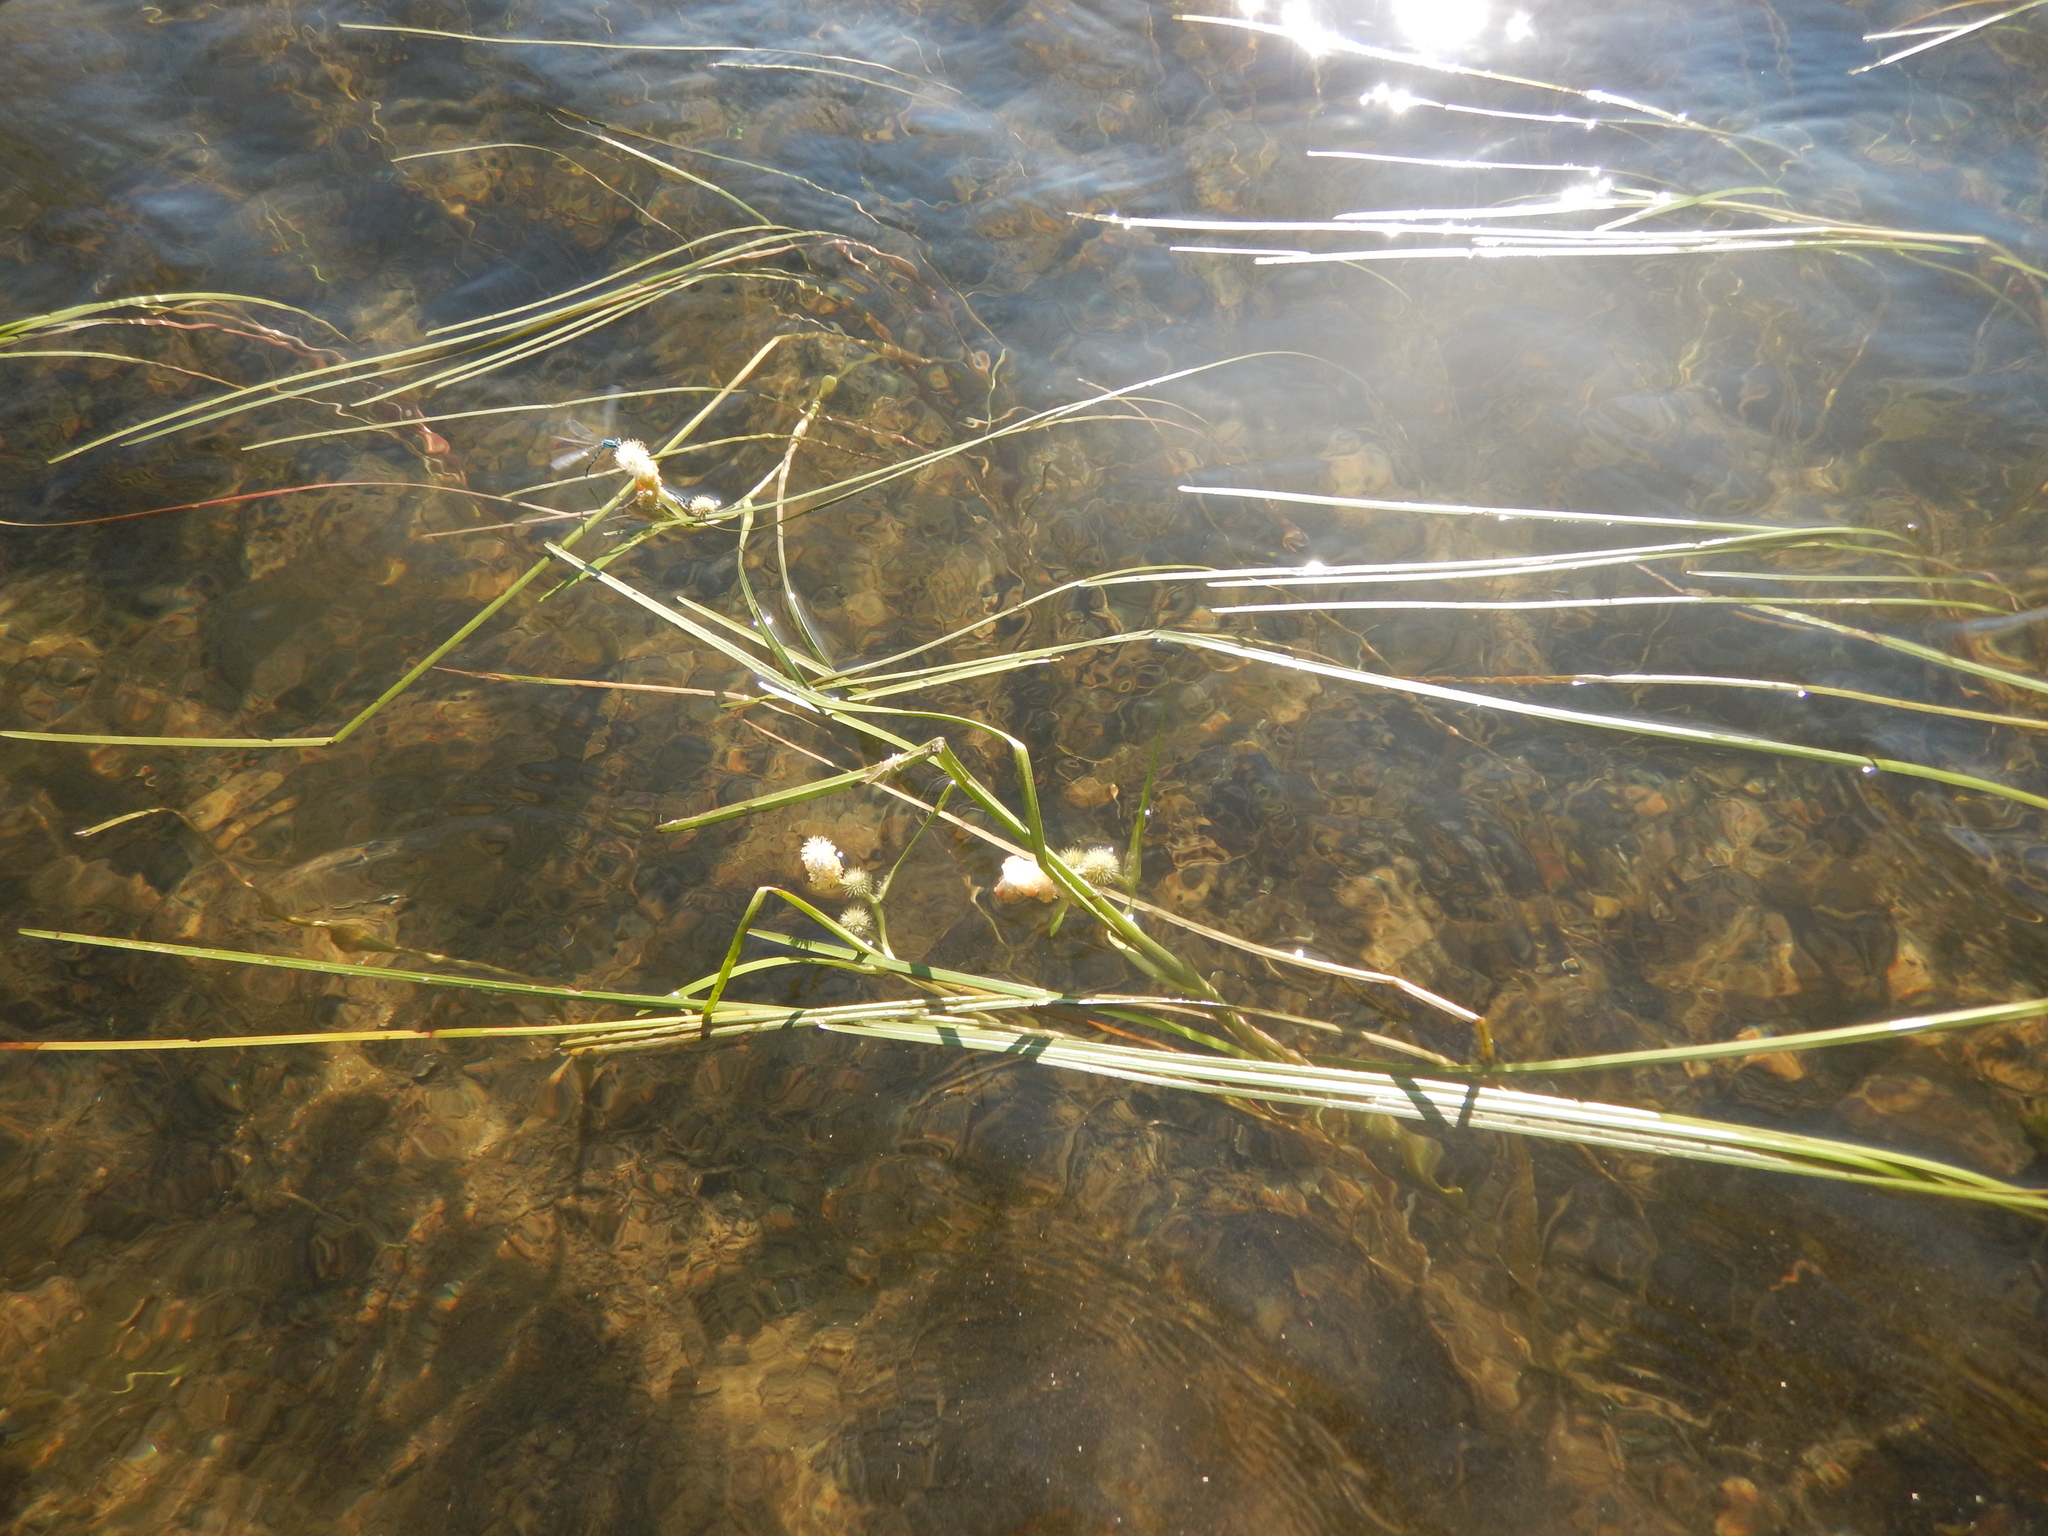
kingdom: Plantae
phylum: Tracheophyta
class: Liliopsida
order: Poales
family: Typhaceae
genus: Sparganium
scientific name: Sparganium angustifolium
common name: Floating bur-reed
